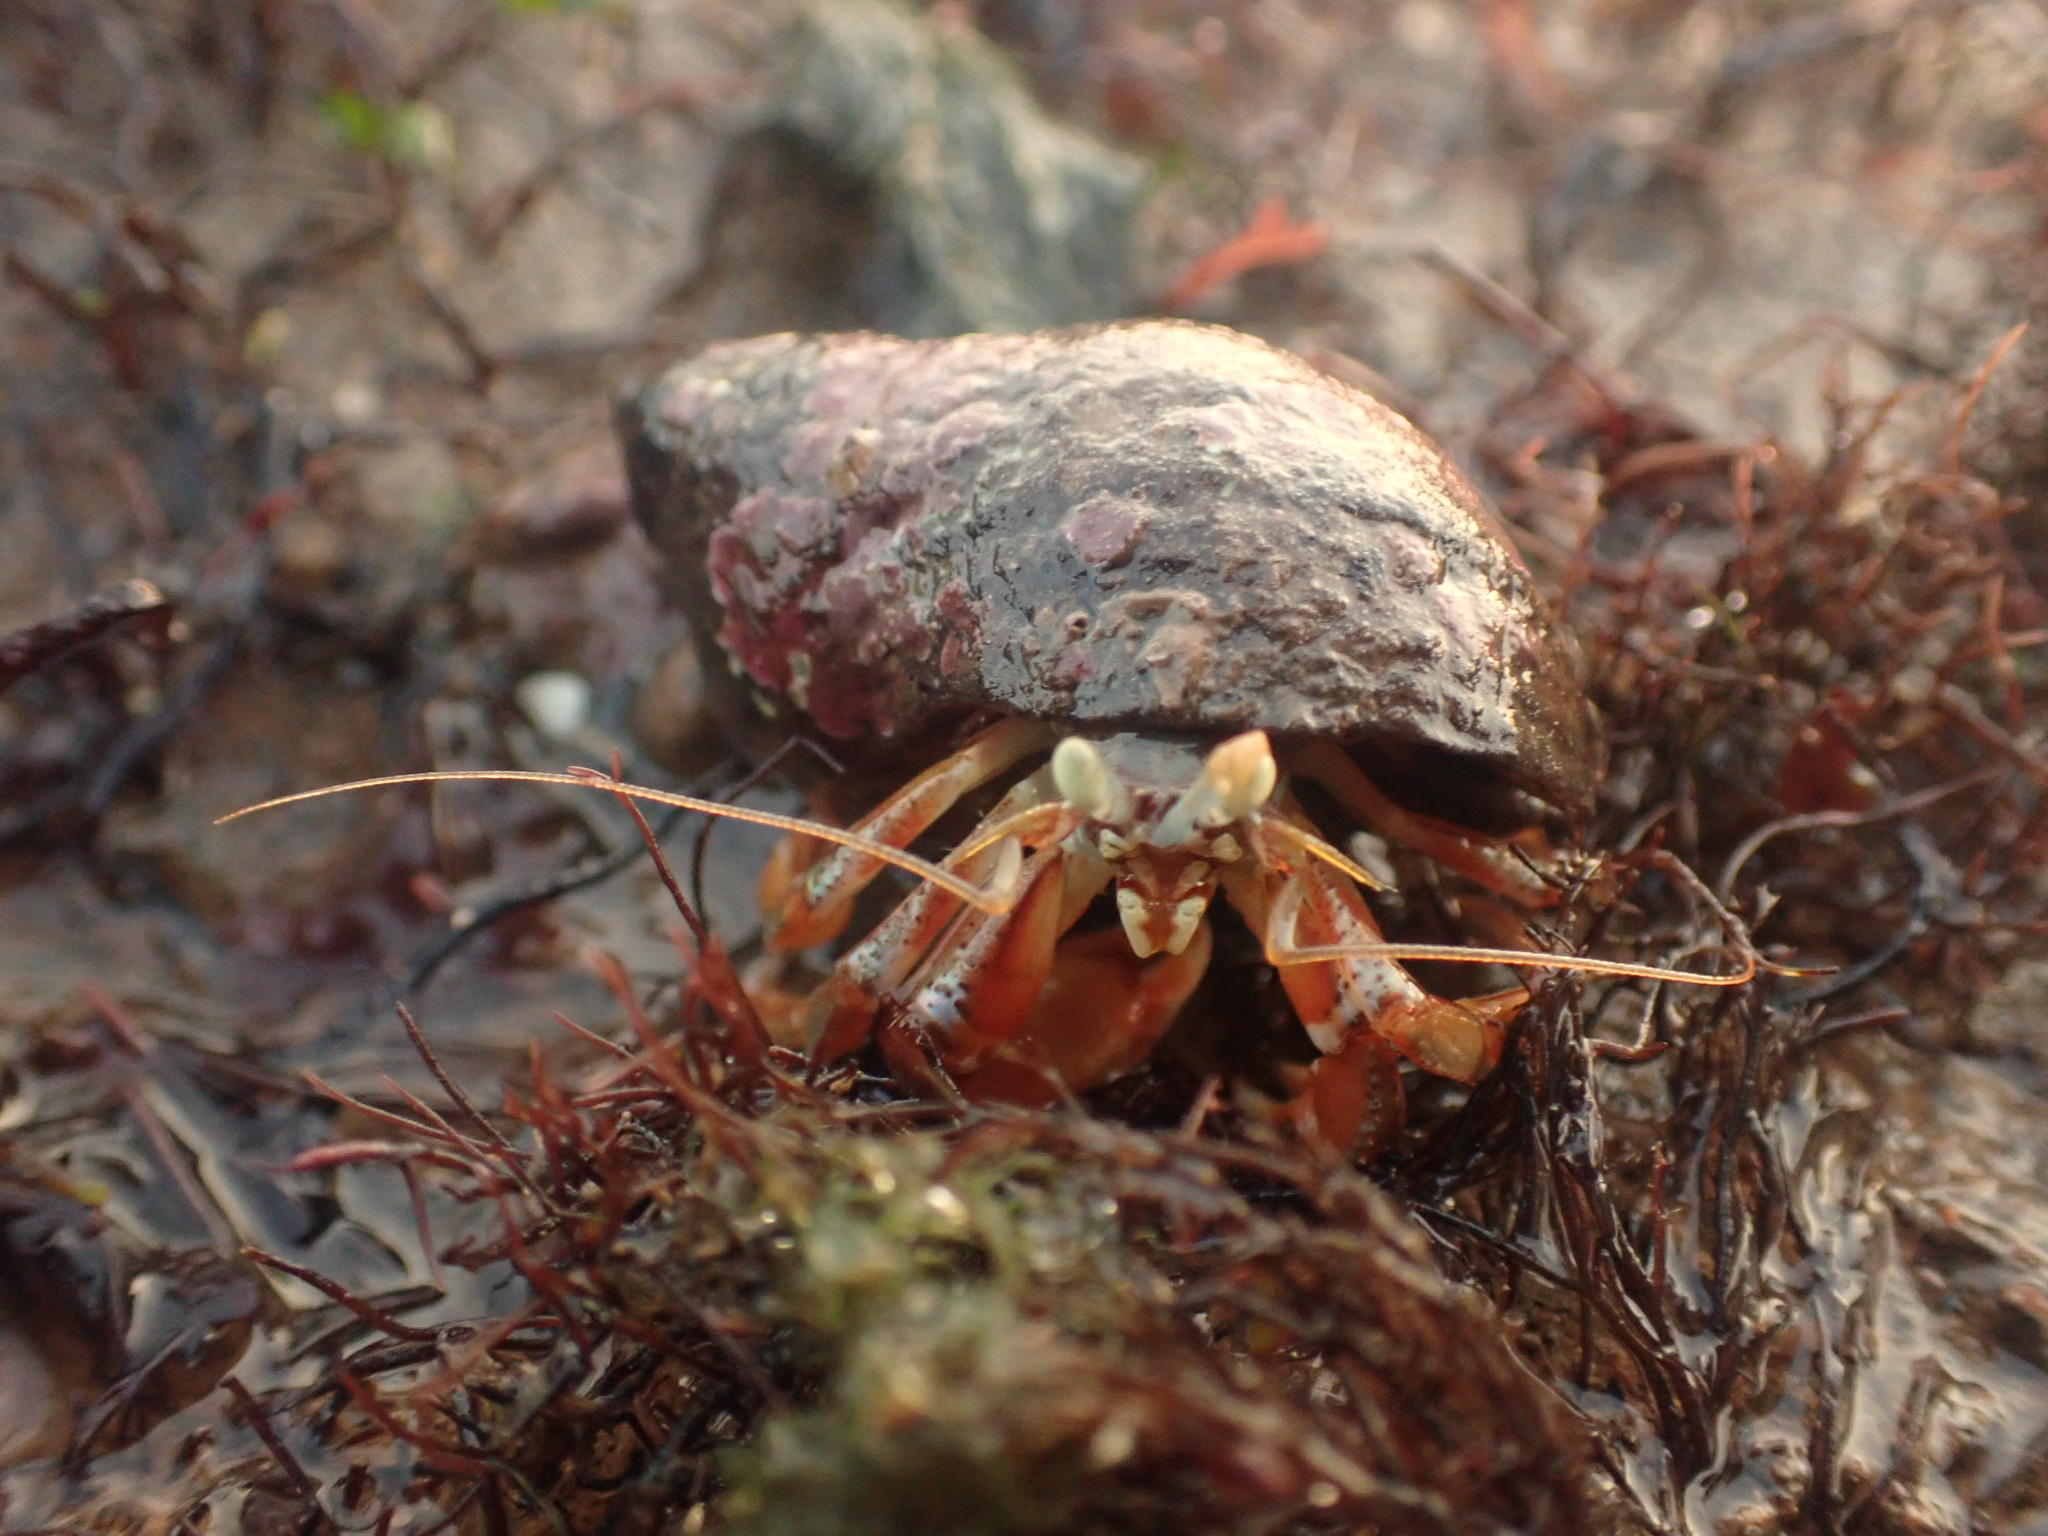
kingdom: Animalia
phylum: Arthropoda
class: Malacostraca
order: Decapoda
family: Paguridae
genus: Pagurus
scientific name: Pagurus acadianus
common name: Acadian hermit crab
